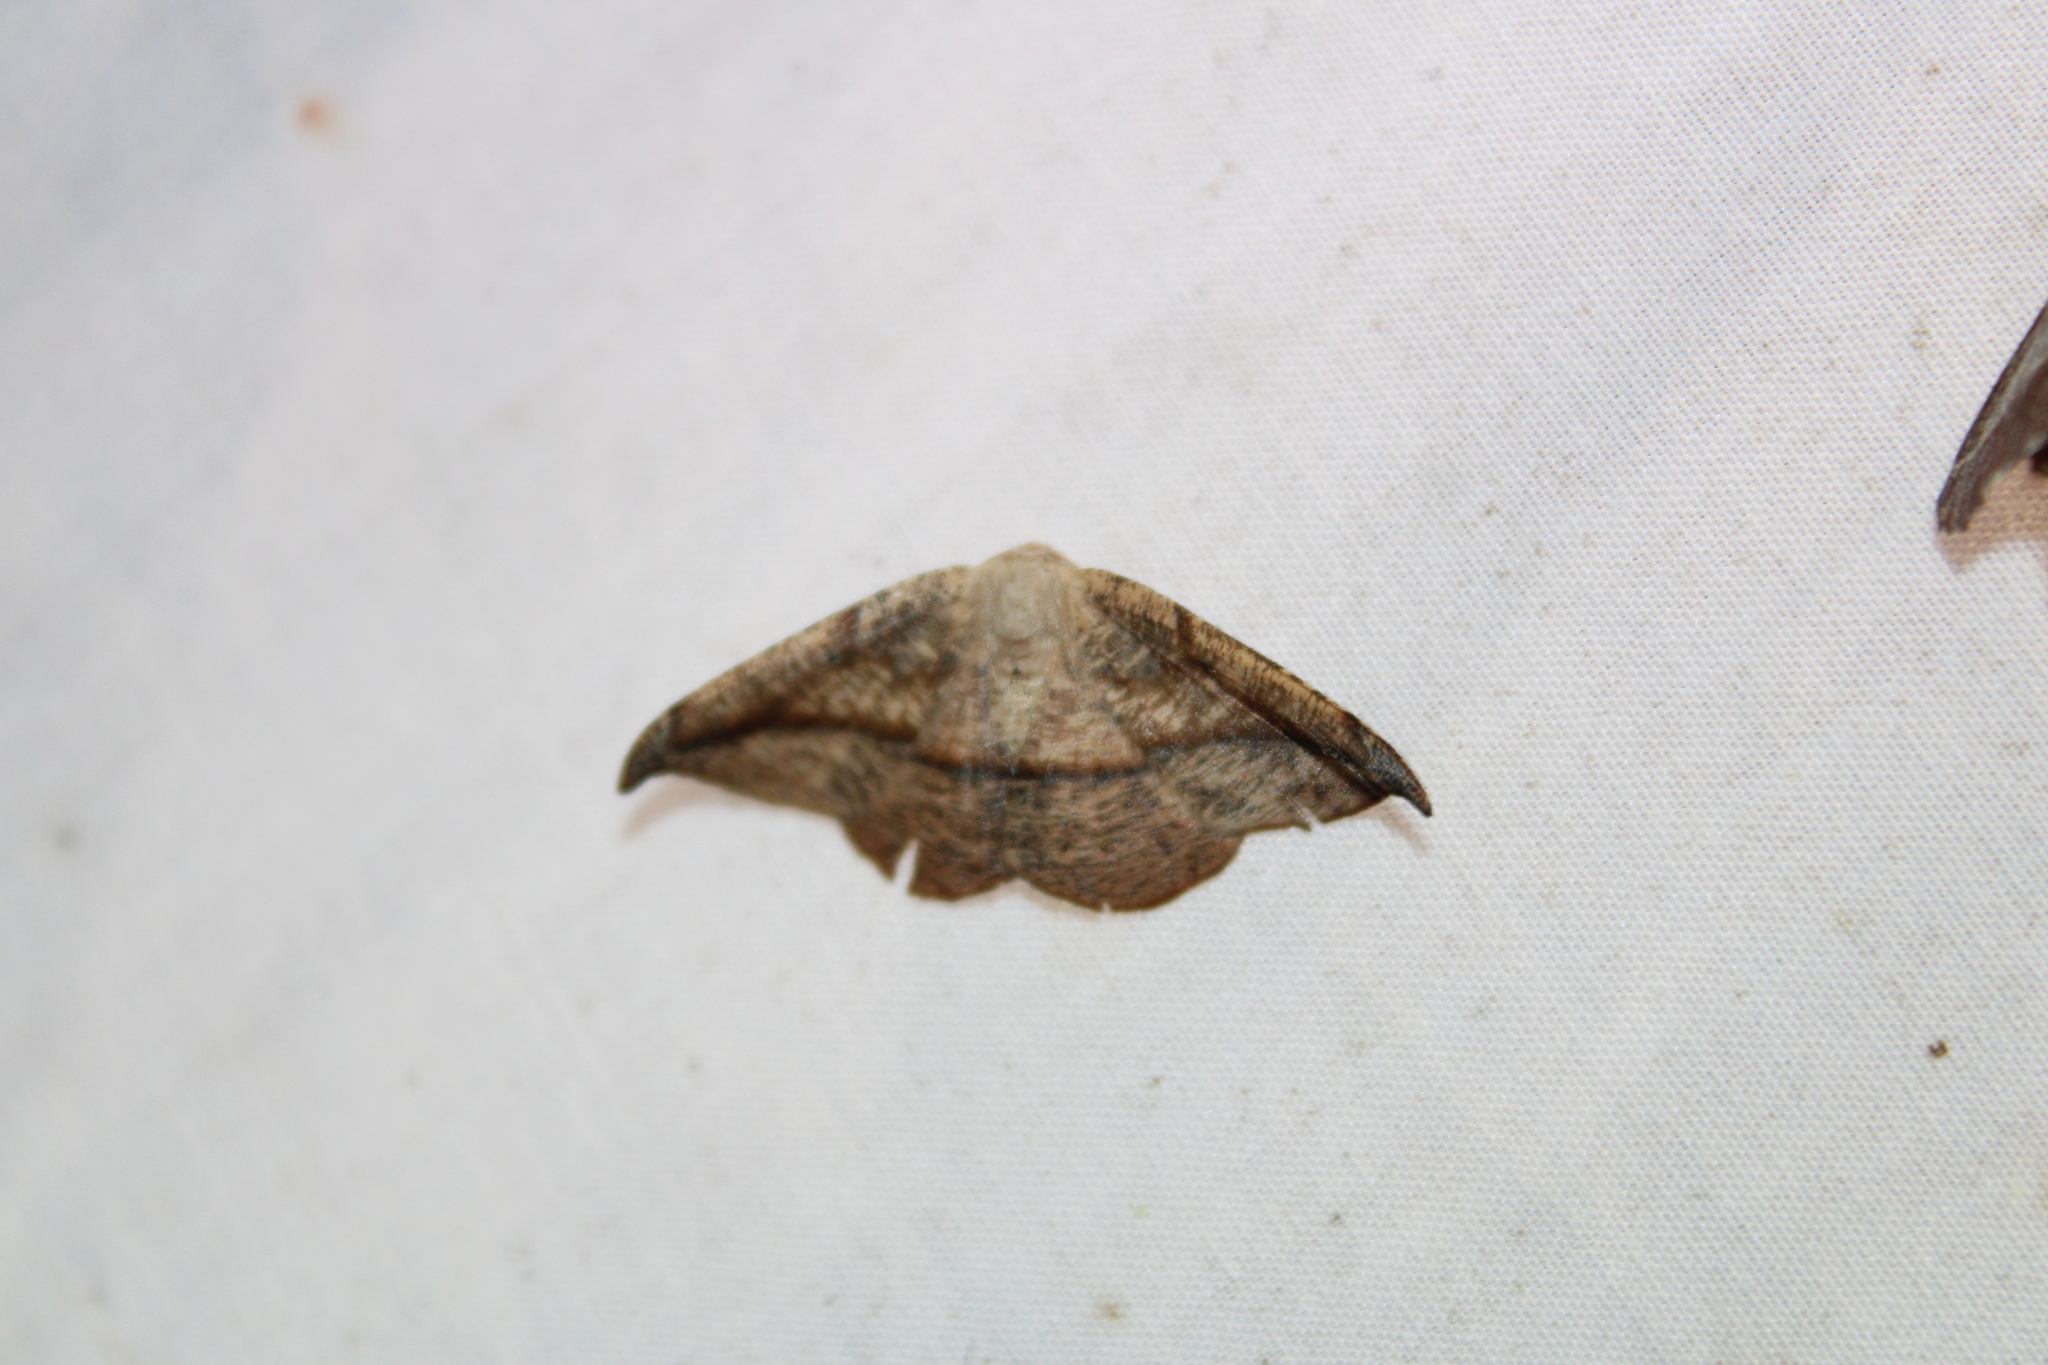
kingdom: Animalia
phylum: Arthropoda
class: Insecta
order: Lepidoptera
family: Geometridae
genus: Patalene
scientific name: Patalene olyzonaria
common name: Juniper geometer moth
